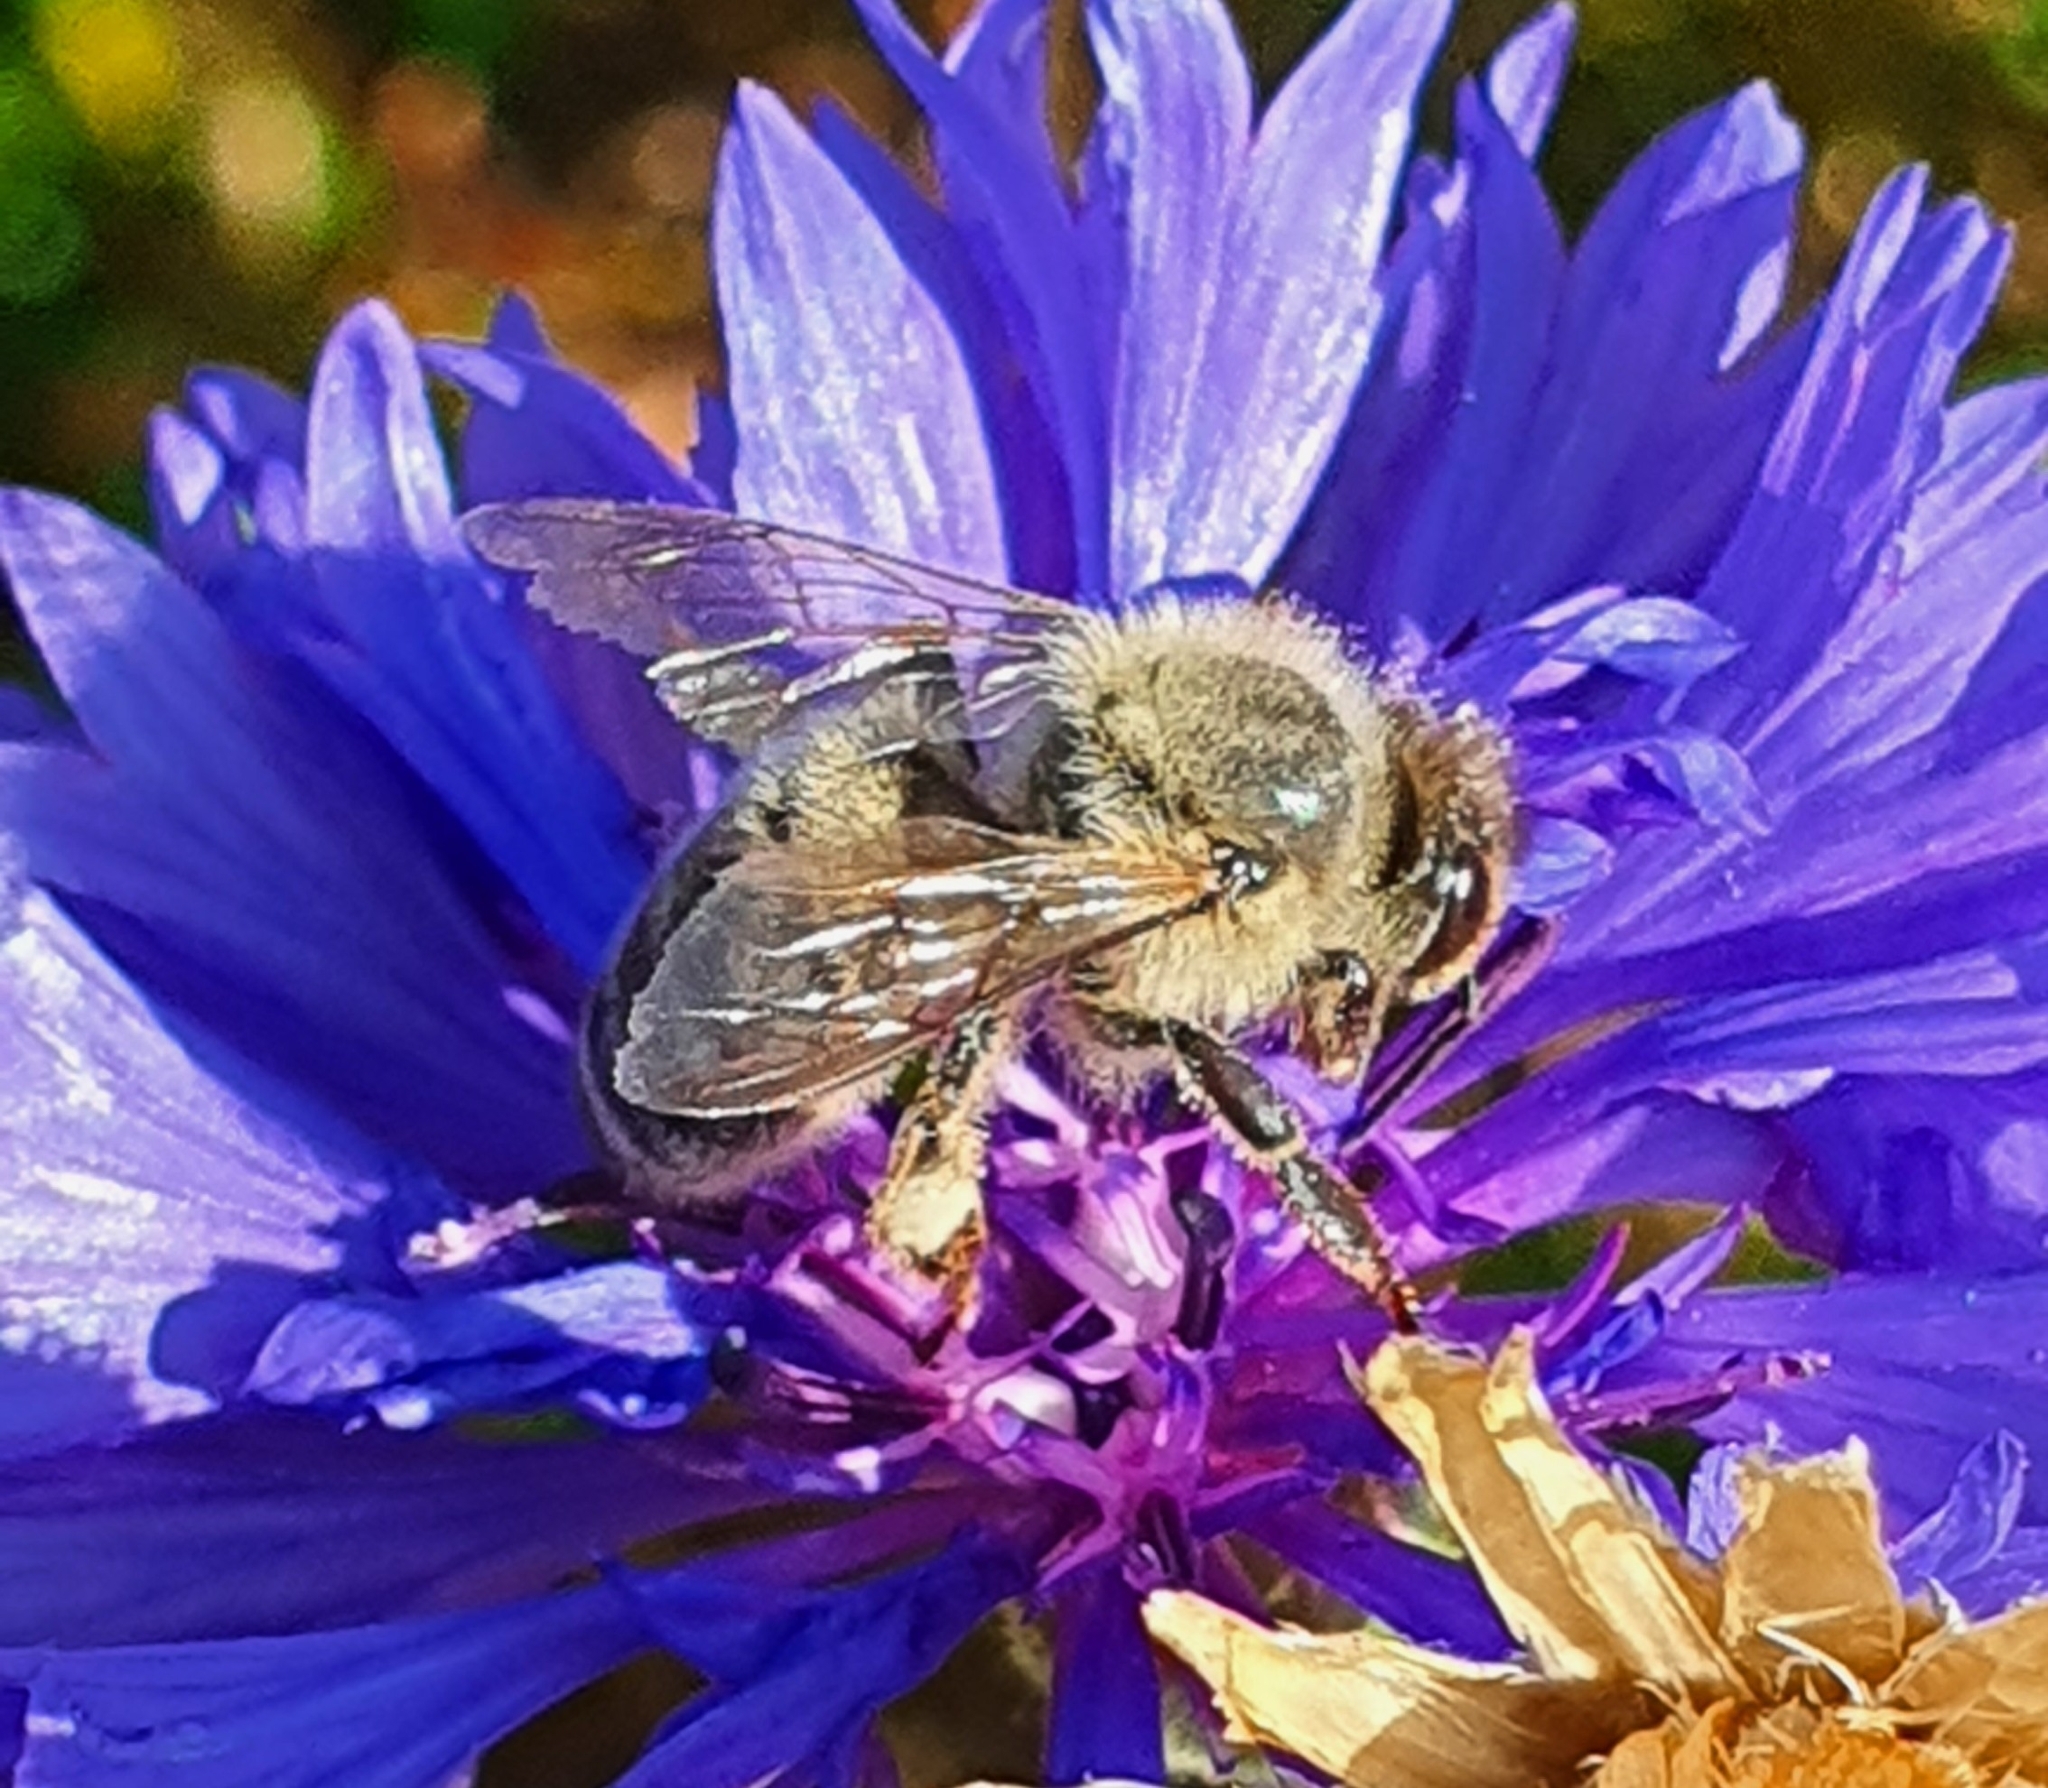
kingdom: Animalia
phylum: Arthropoda
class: Insecta
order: Hymenoptera
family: Apidae
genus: Apis
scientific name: Apis mellifera
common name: Honey bee
